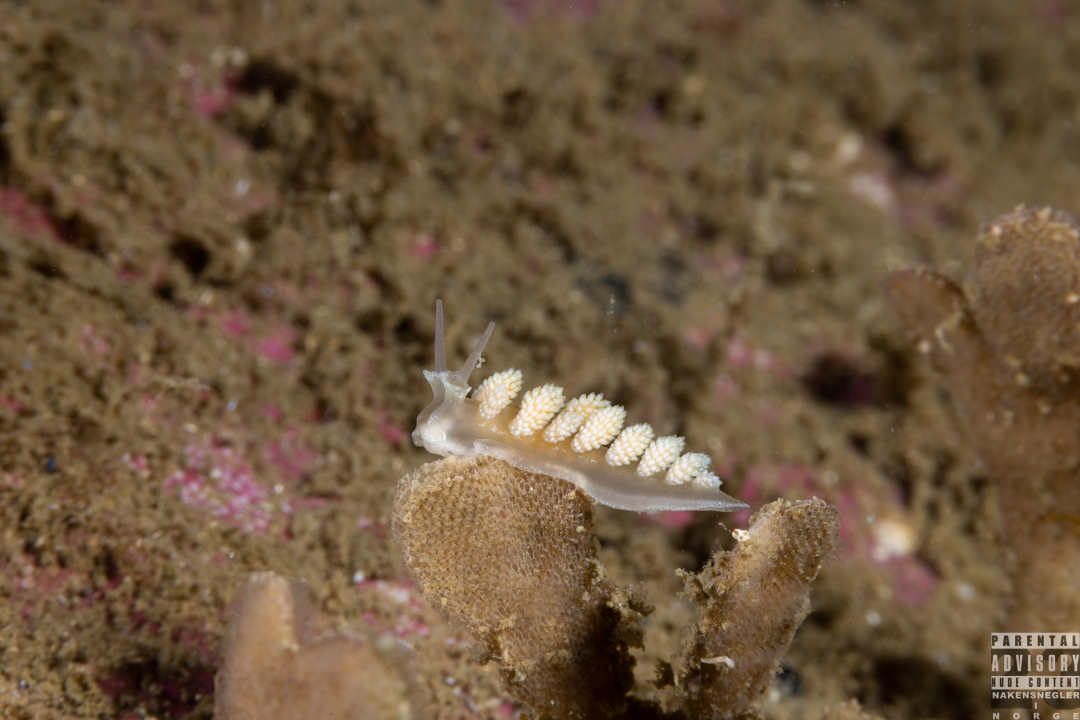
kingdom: Animalia
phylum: Mollusca
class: Gastropoda
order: Nudibranchia
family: Dotidae
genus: Doto
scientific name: Doto fragilis
